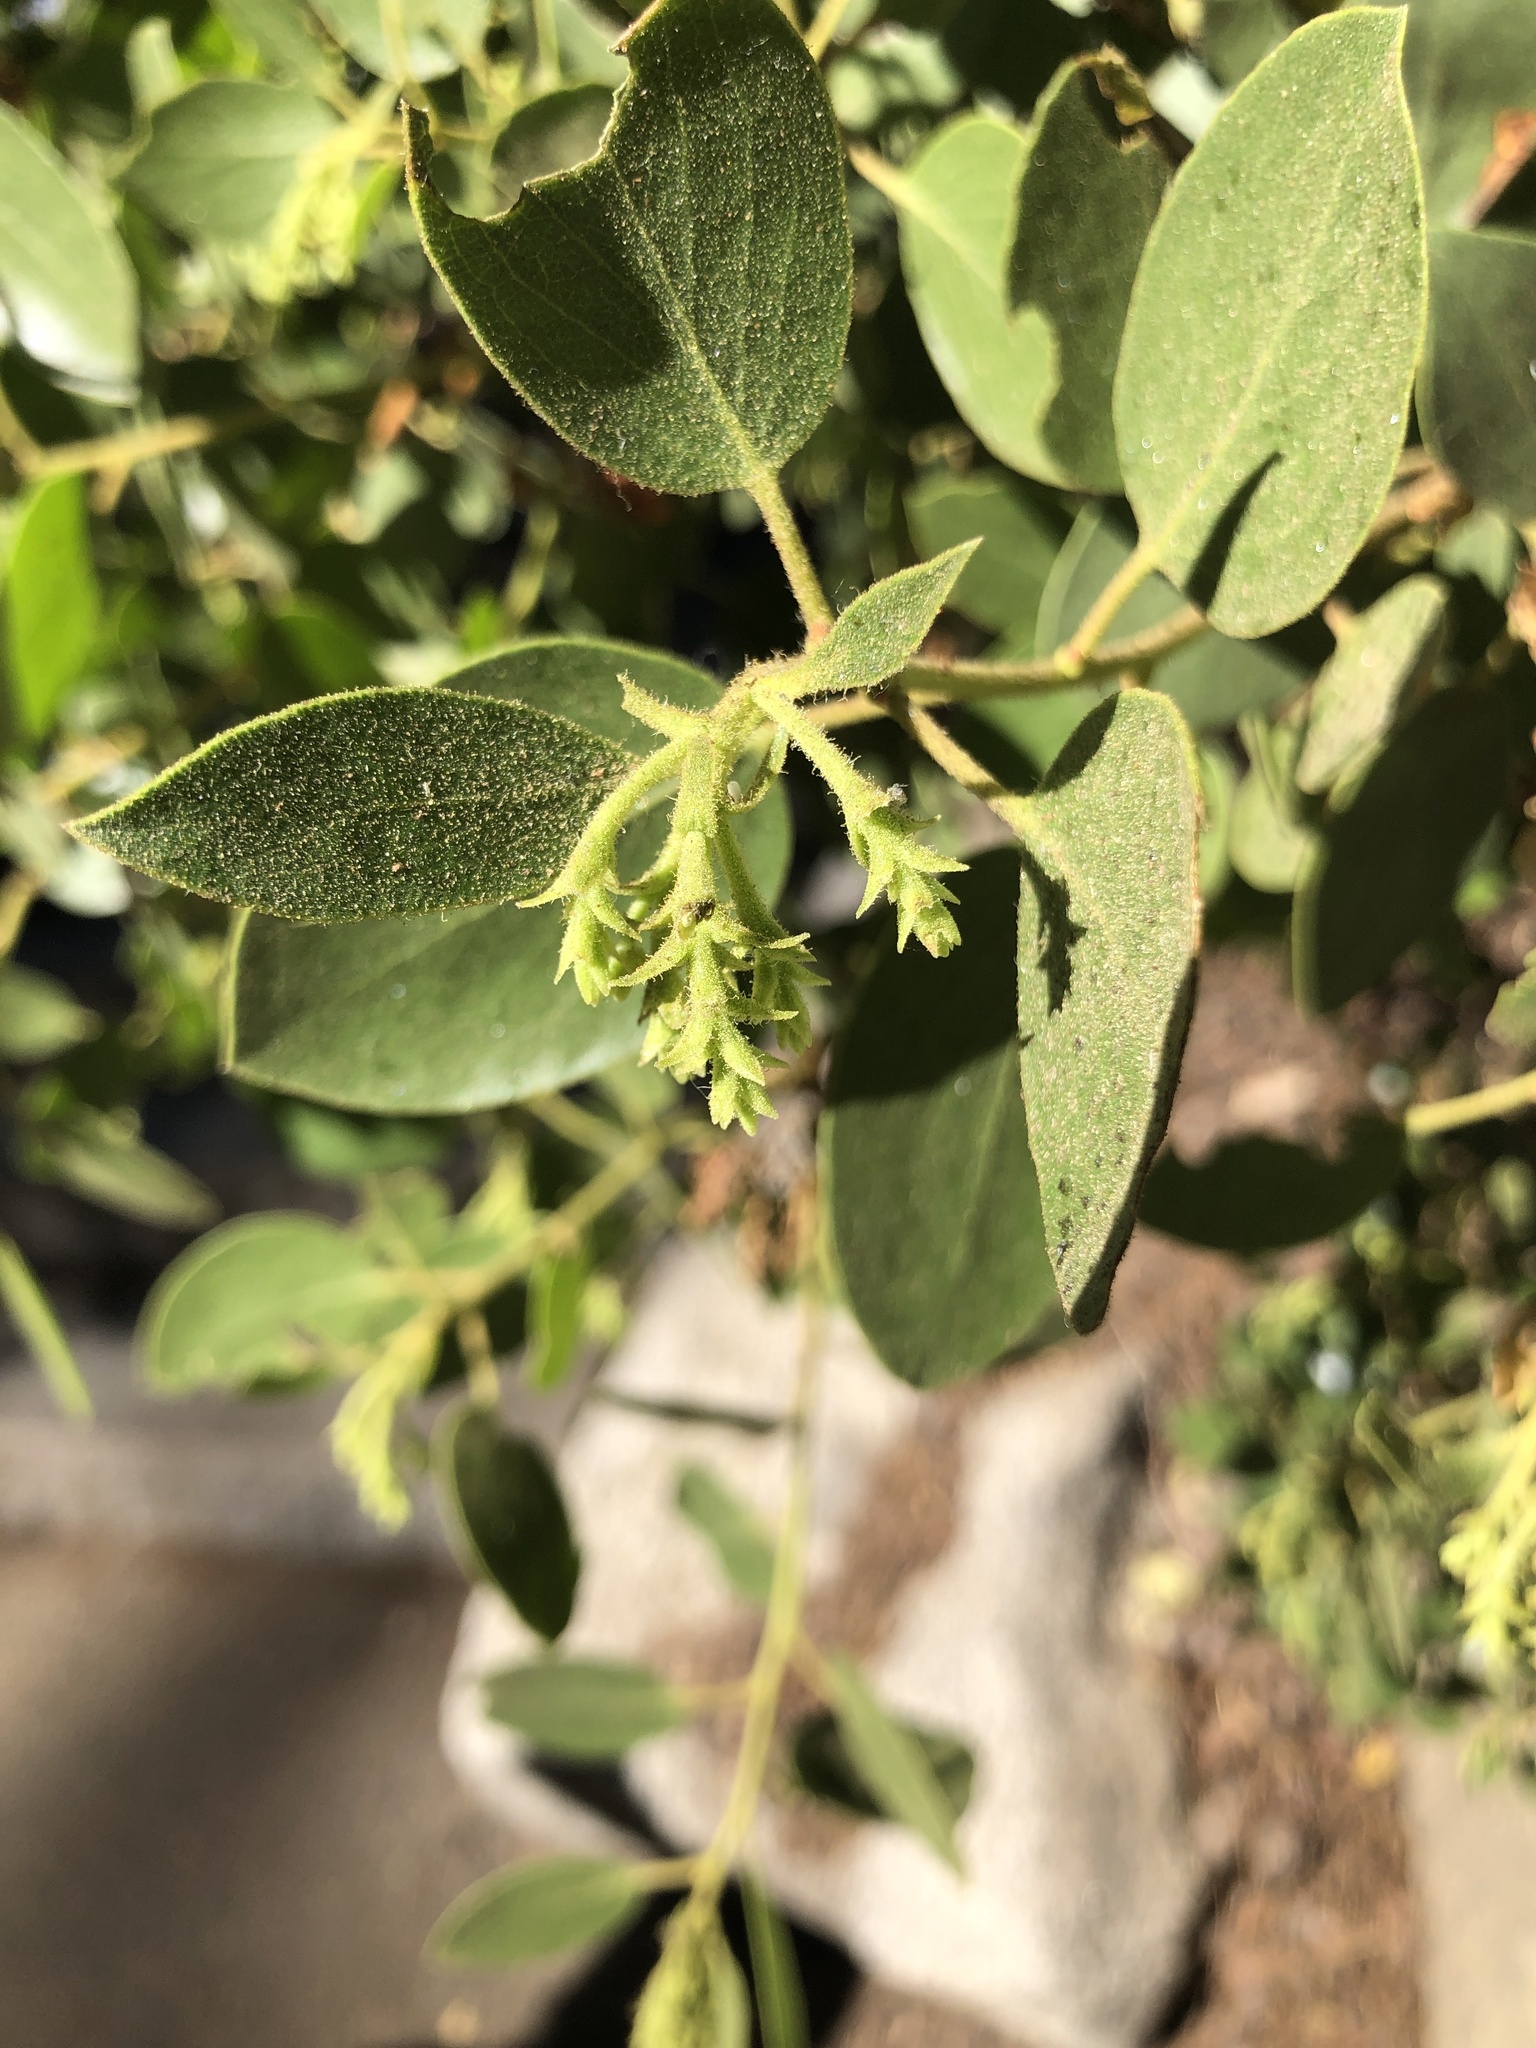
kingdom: Plantae
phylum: Tracheophyta
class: Magnoliopsida
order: Ericales
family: Ericaceae
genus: Arctostaphylos
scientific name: Arctostaphylos patula
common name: Green-leaf manzanita
